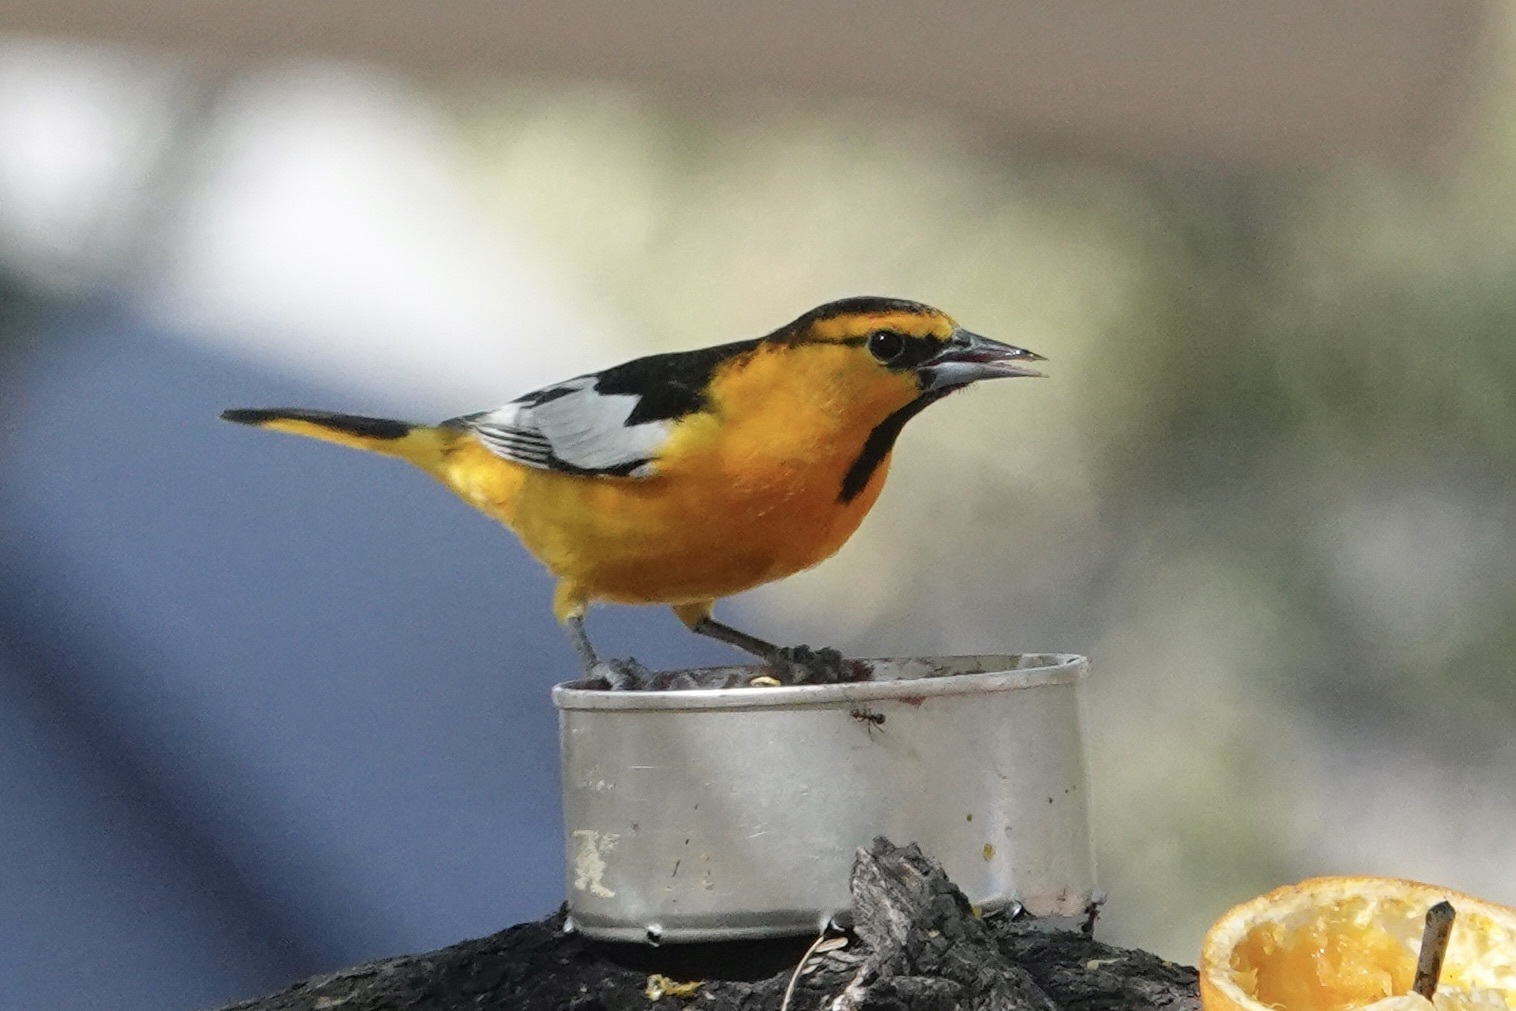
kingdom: Animalia
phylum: Chordata
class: Aves
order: Passeriformes
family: Icteridae
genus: Icterus
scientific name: Icterus bullockii
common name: Bullock's oriole
